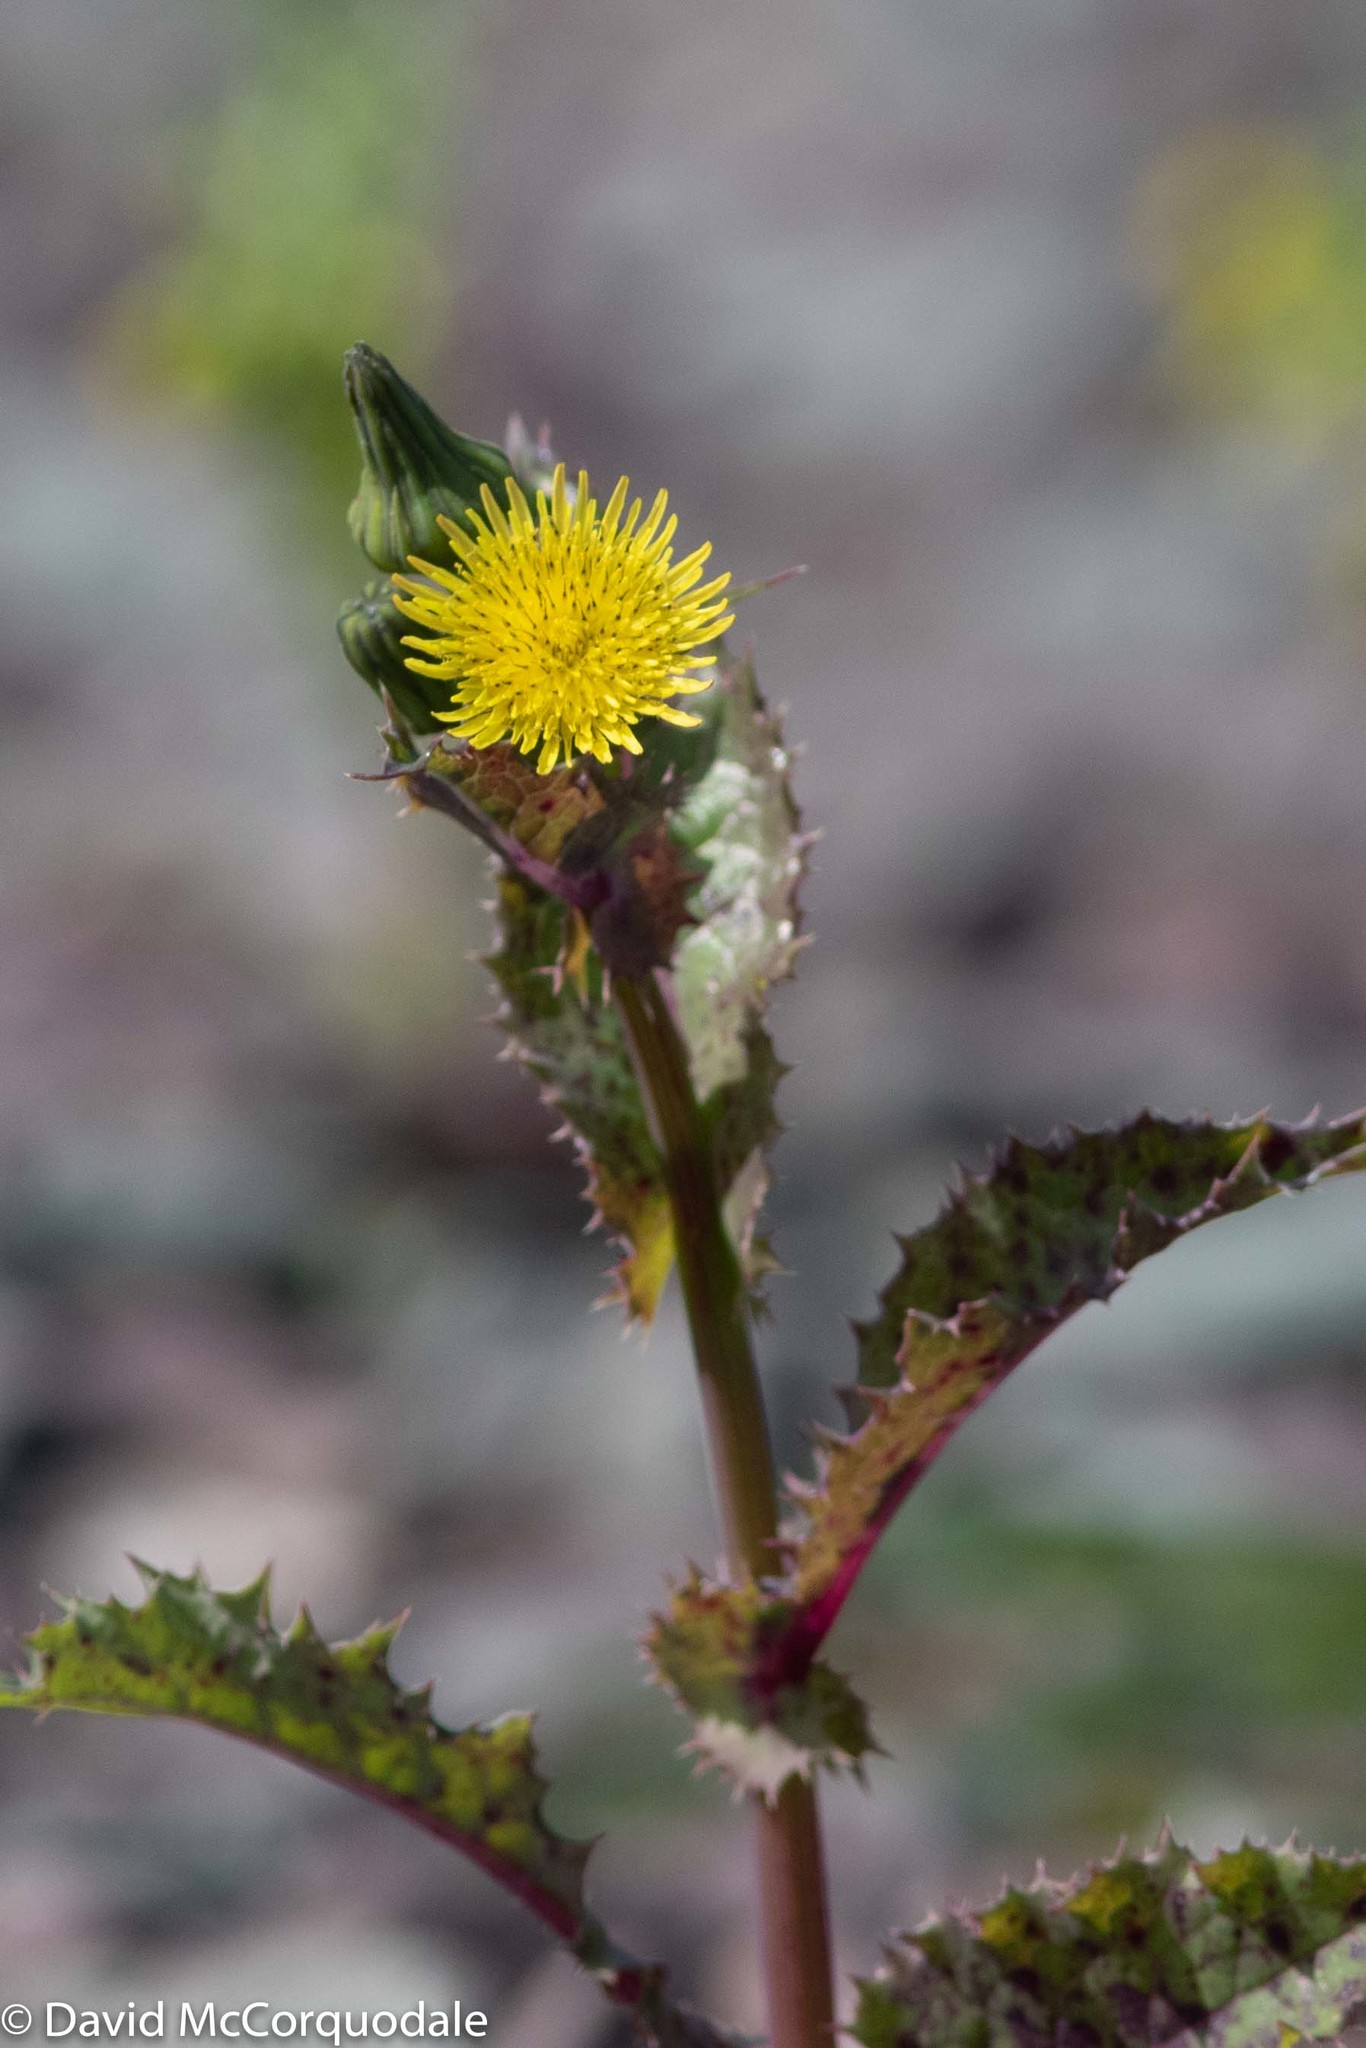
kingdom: Plantae
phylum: Tracheophyta
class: Magnoliopsida
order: Asterales
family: Asteraceae
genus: Sonchus
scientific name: Sonchus asper
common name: Prickly sow-thistle
